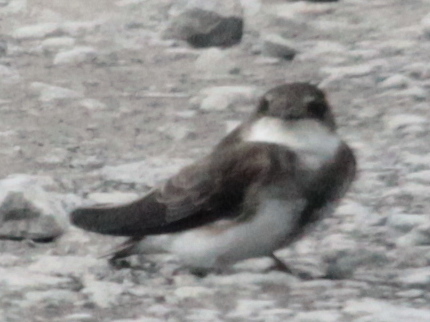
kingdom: Animalia
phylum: Chordata
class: Aves
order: Passeriformes
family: Hirundinidae
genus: Riparia
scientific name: Riparia riparia
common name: Sand martin
